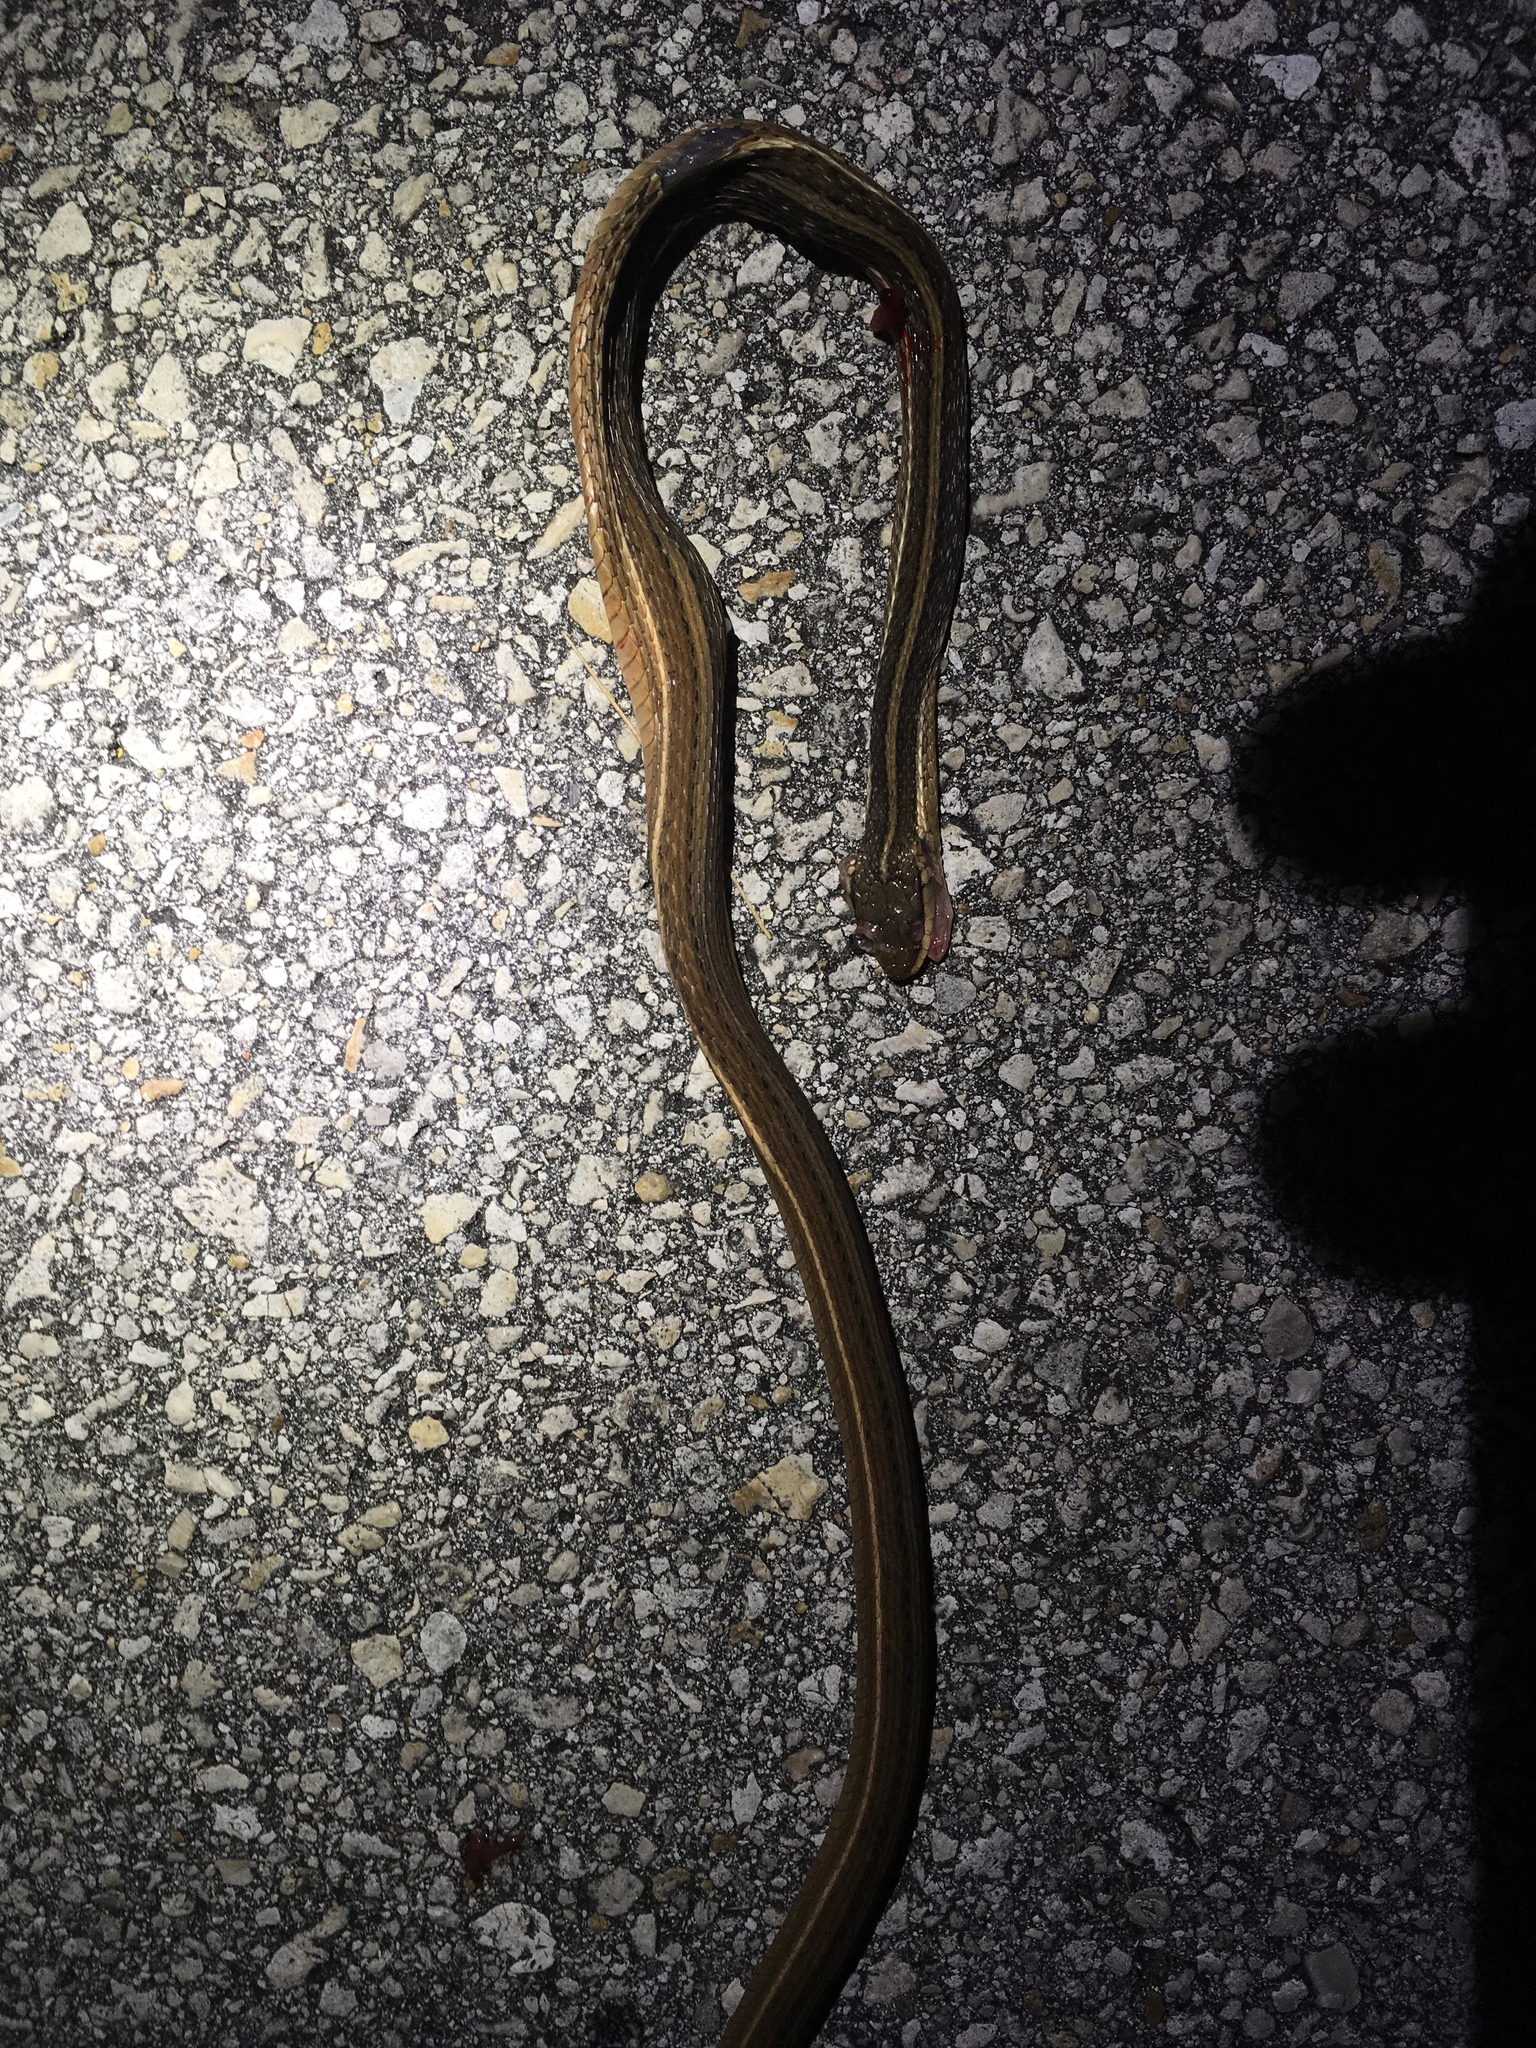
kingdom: Animalia
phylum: Chordata
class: Squamata
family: Colubridae
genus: Thamnophis
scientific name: Thamnophis saurita
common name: Eastern ribbonsnake
